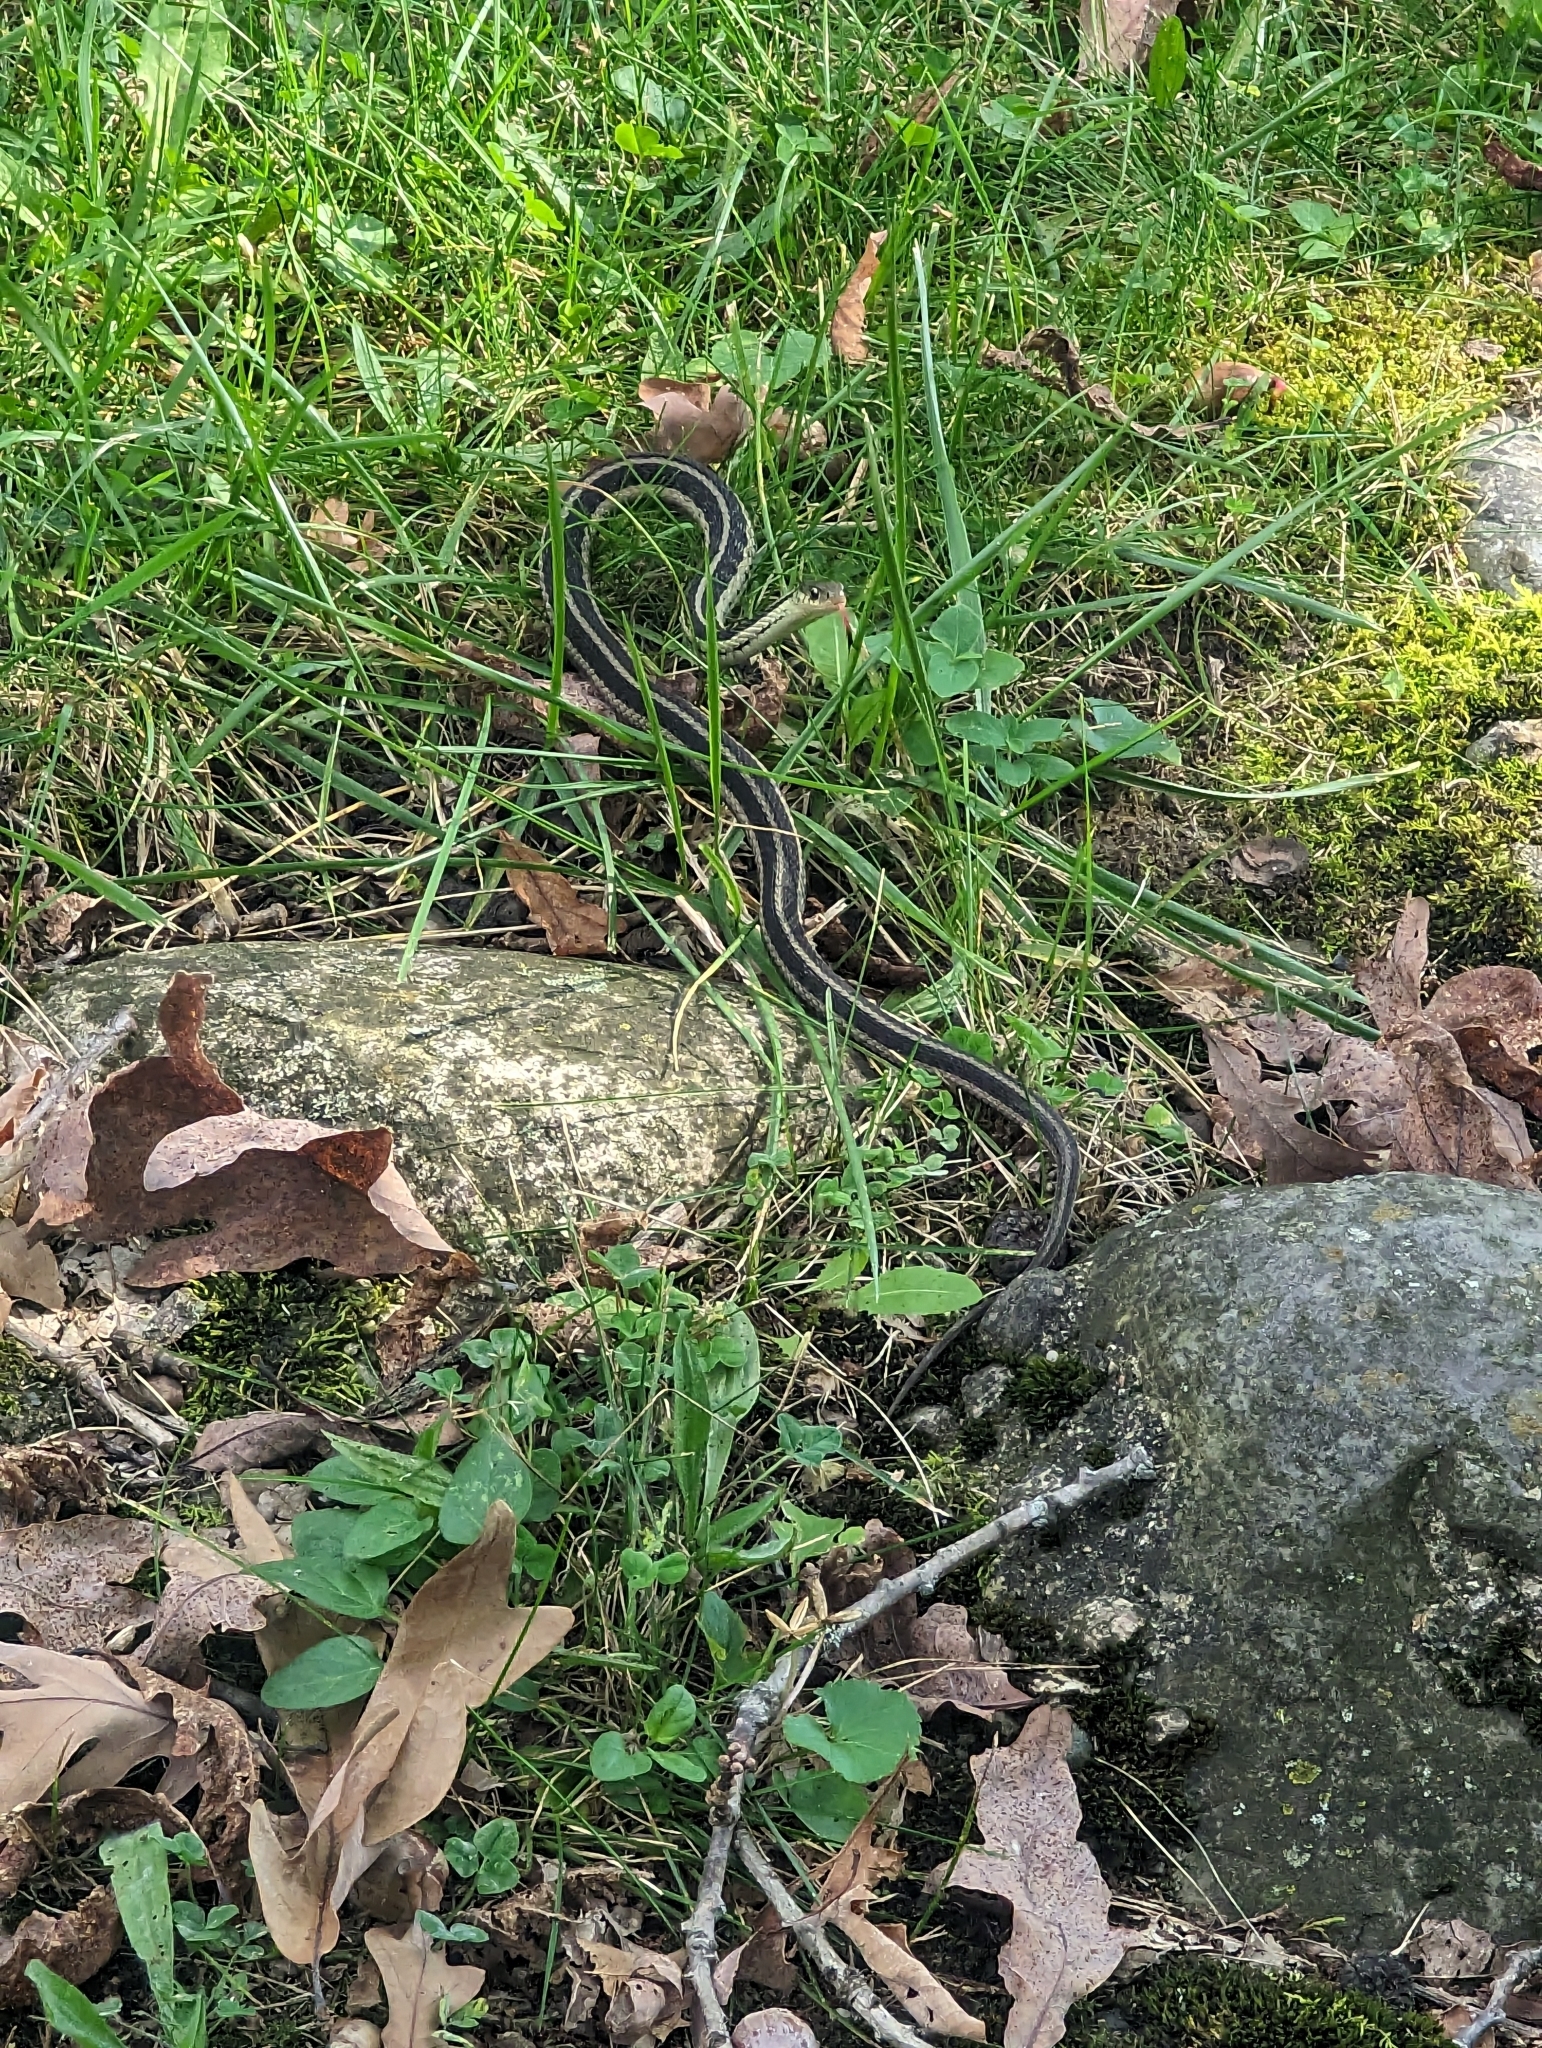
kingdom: Animalia
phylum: Chordata
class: Squamata
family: Colubridae
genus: Thamnophis
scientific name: Thamnophis sirtalis
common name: Common garter snake
